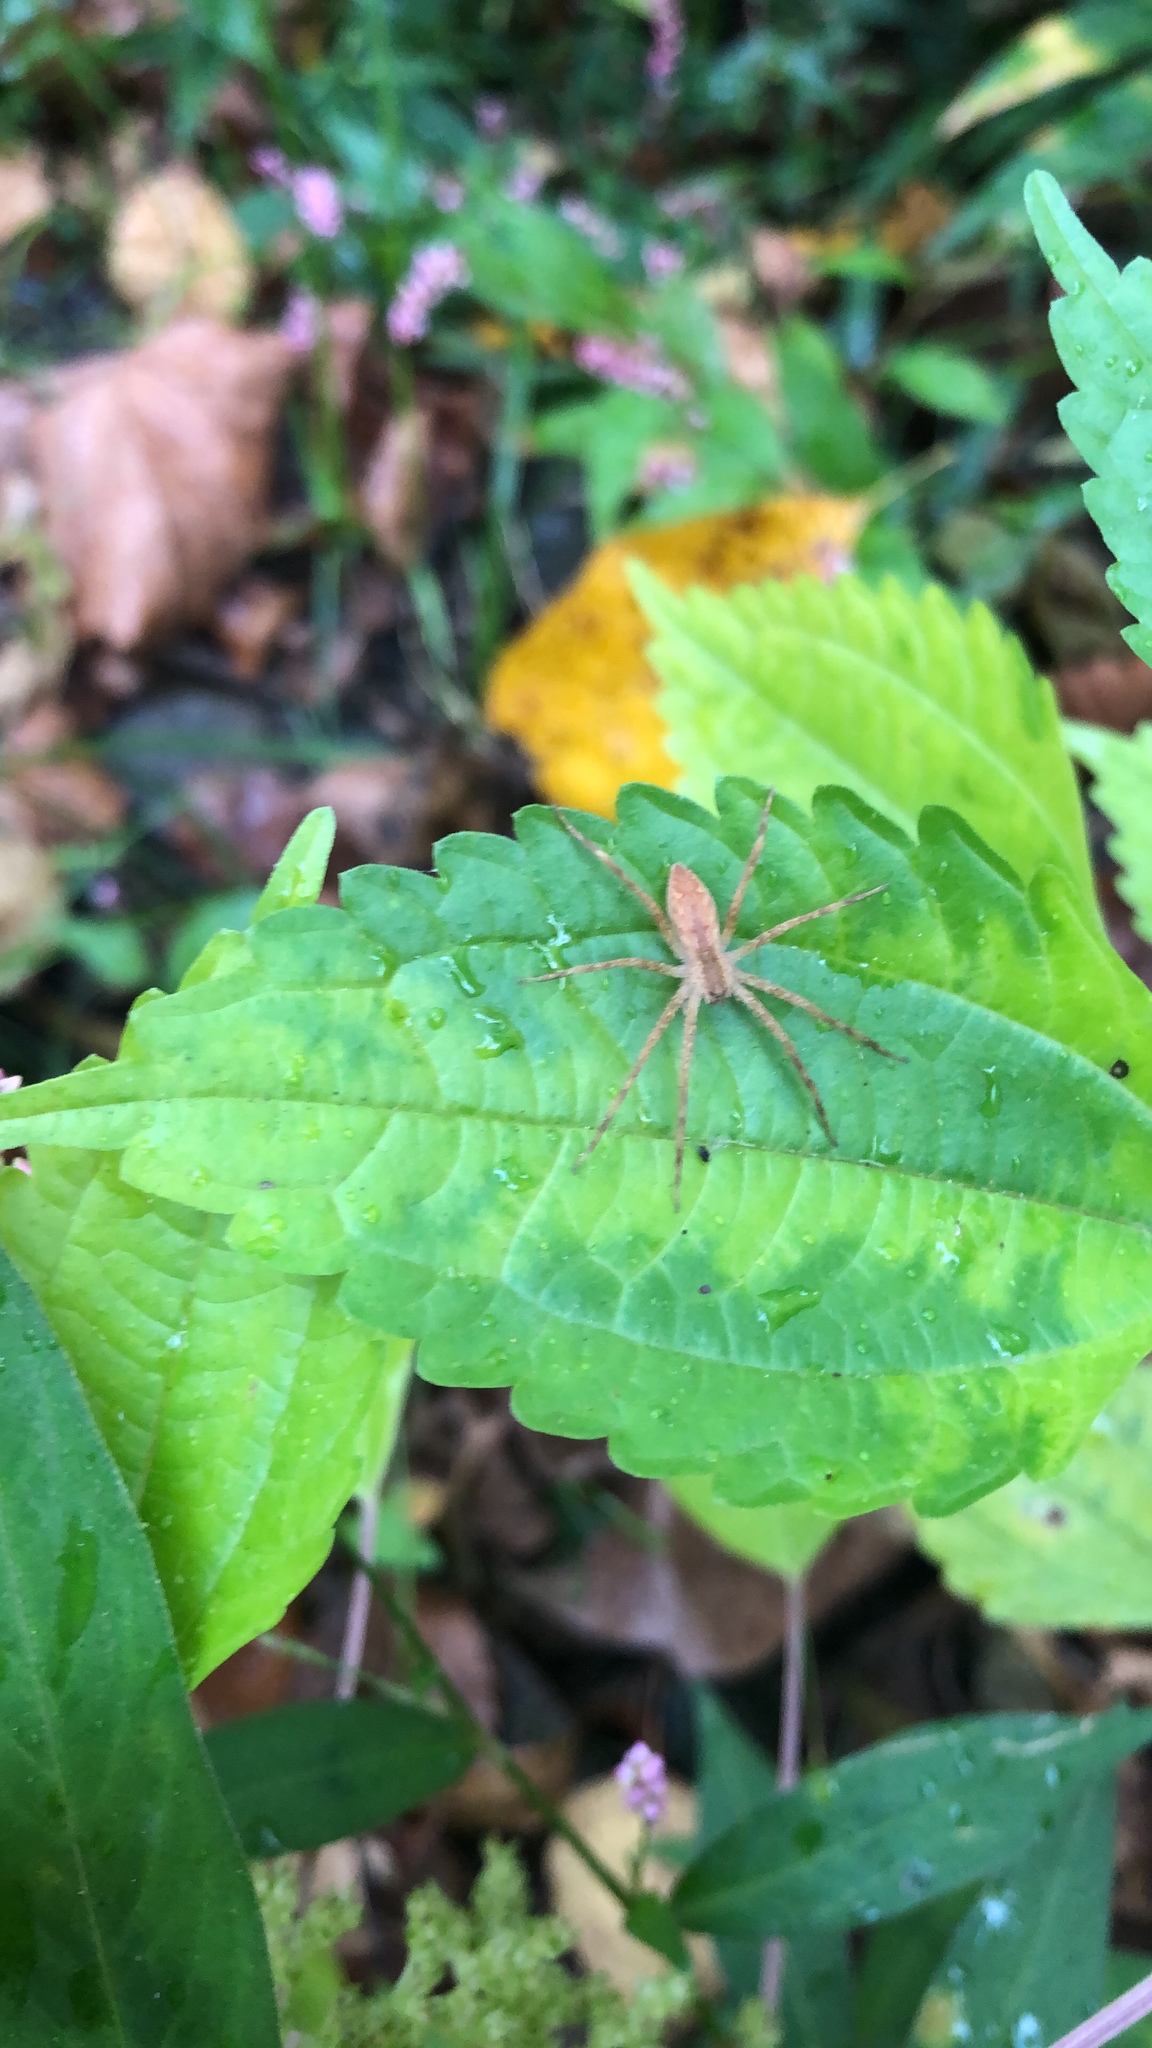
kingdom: Animalia
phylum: Arthropoda
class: Arachnida
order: Araneae
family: Pisauridae
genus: Pisaurina
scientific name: Pisaurina mira
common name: American nursery web spider
